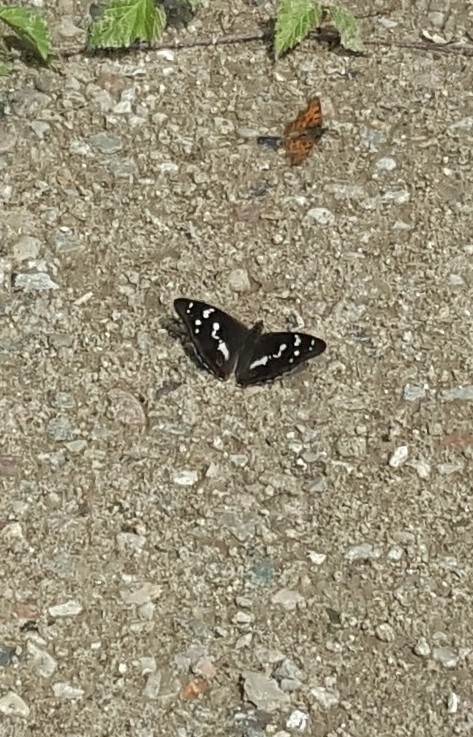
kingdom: Animalia
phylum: Arthropoda
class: Insecta
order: Lepidoptera
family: Nymphalidae
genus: Apatura
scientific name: Apatura iris
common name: Purple emperor
